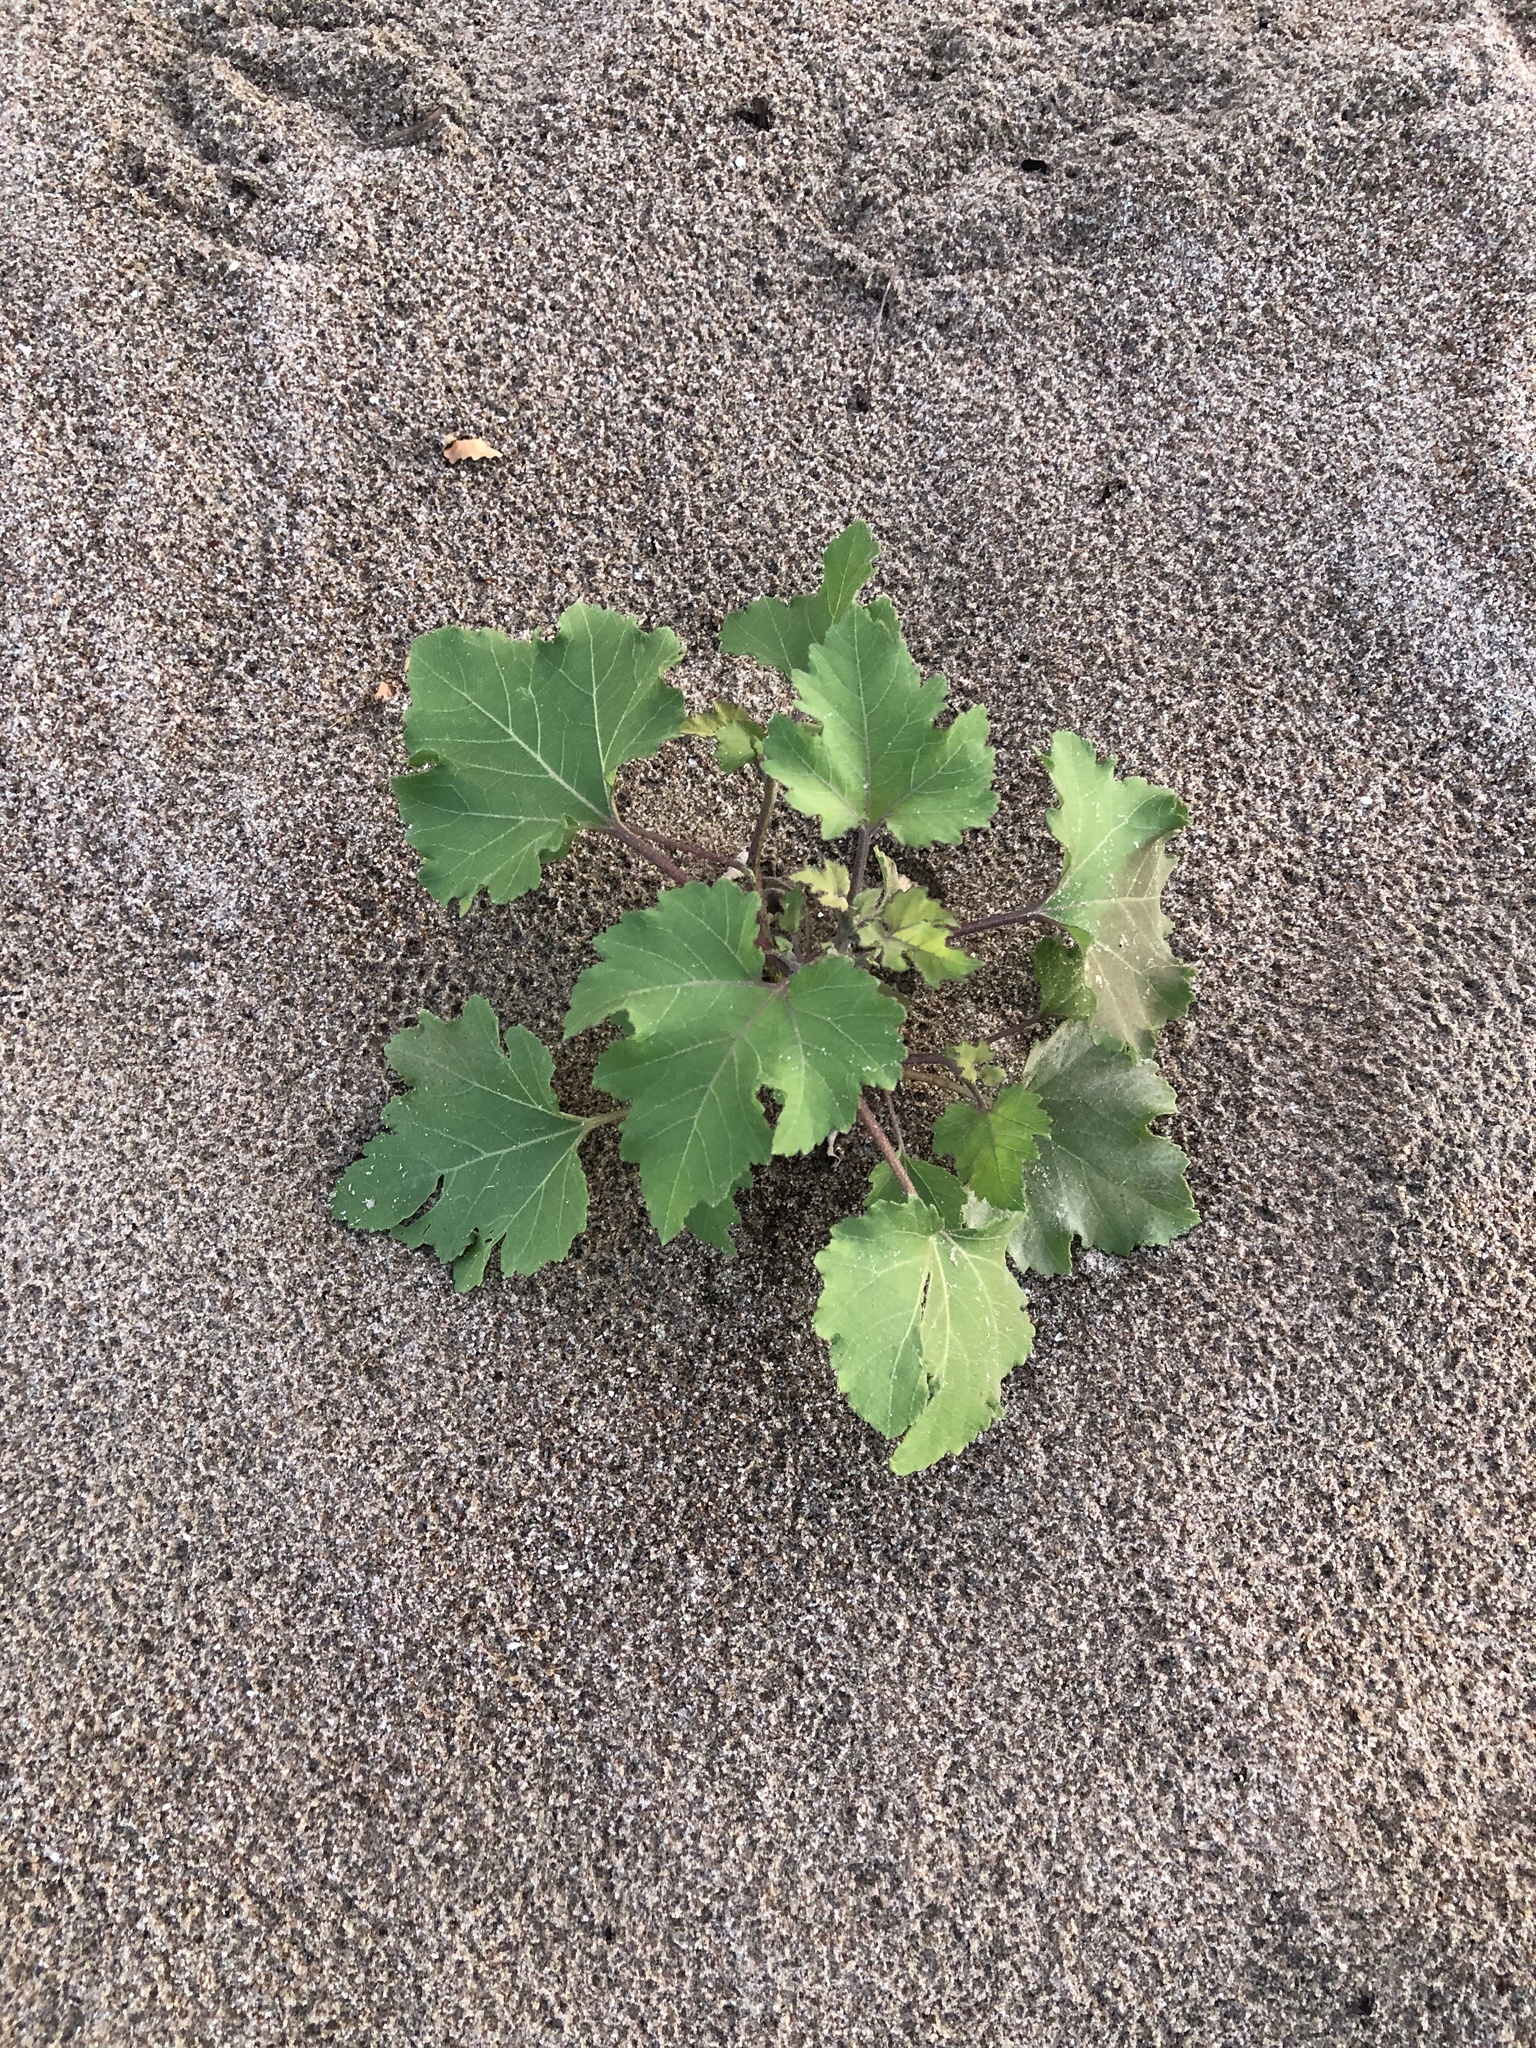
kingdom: Plantae
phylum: Tracheophyta
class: Magnoliopsida
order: Asterales
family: Asteraceae
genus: Xanthium
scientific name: Xanthium strumarium
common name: Rough cocklebur
